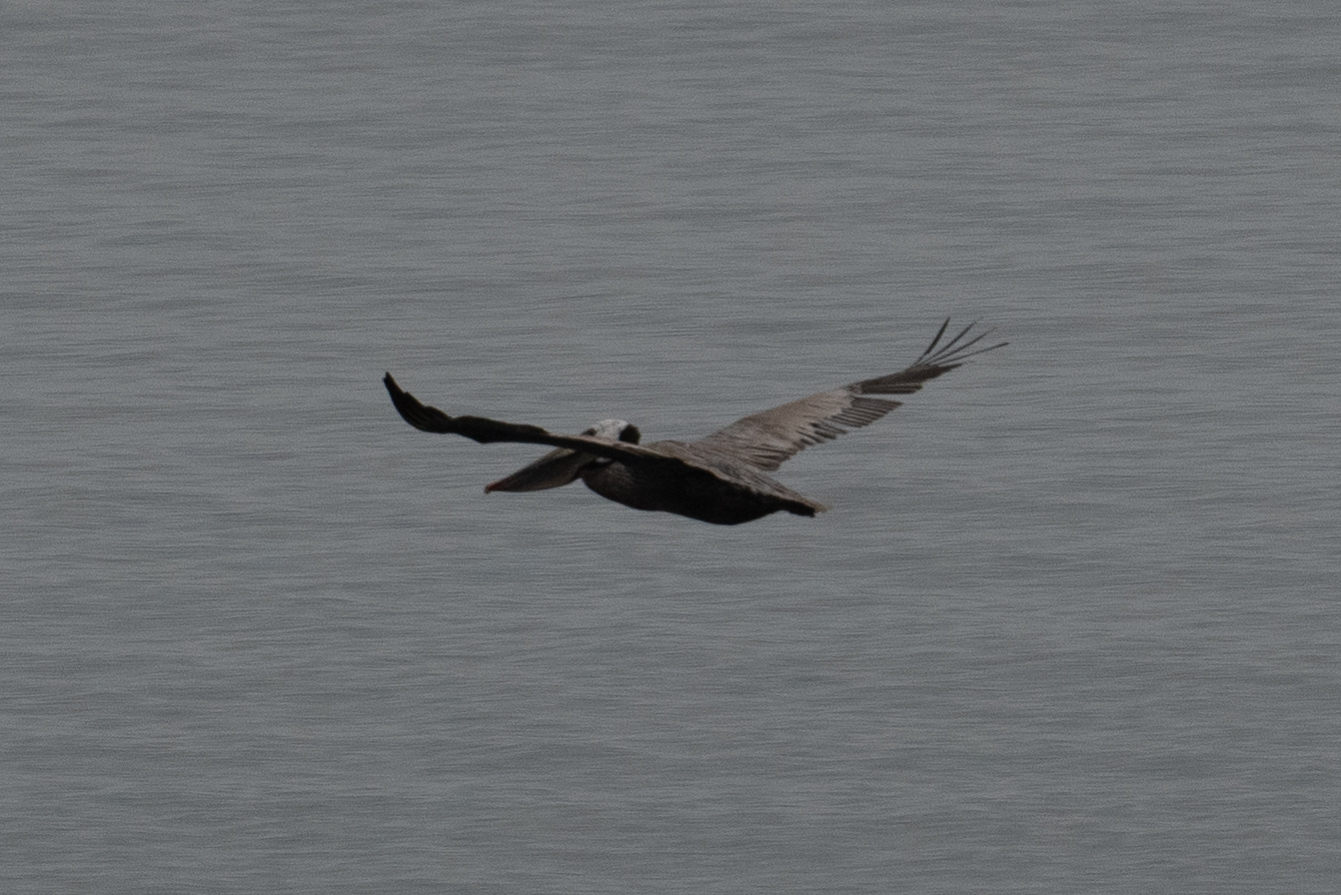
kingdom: Animalia
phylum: Chordata
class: Aves
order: Pelecaniformes
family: Pelecanidae
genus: Pelecanus
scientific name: Pelecanus occidentalis
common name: Brown pelican
